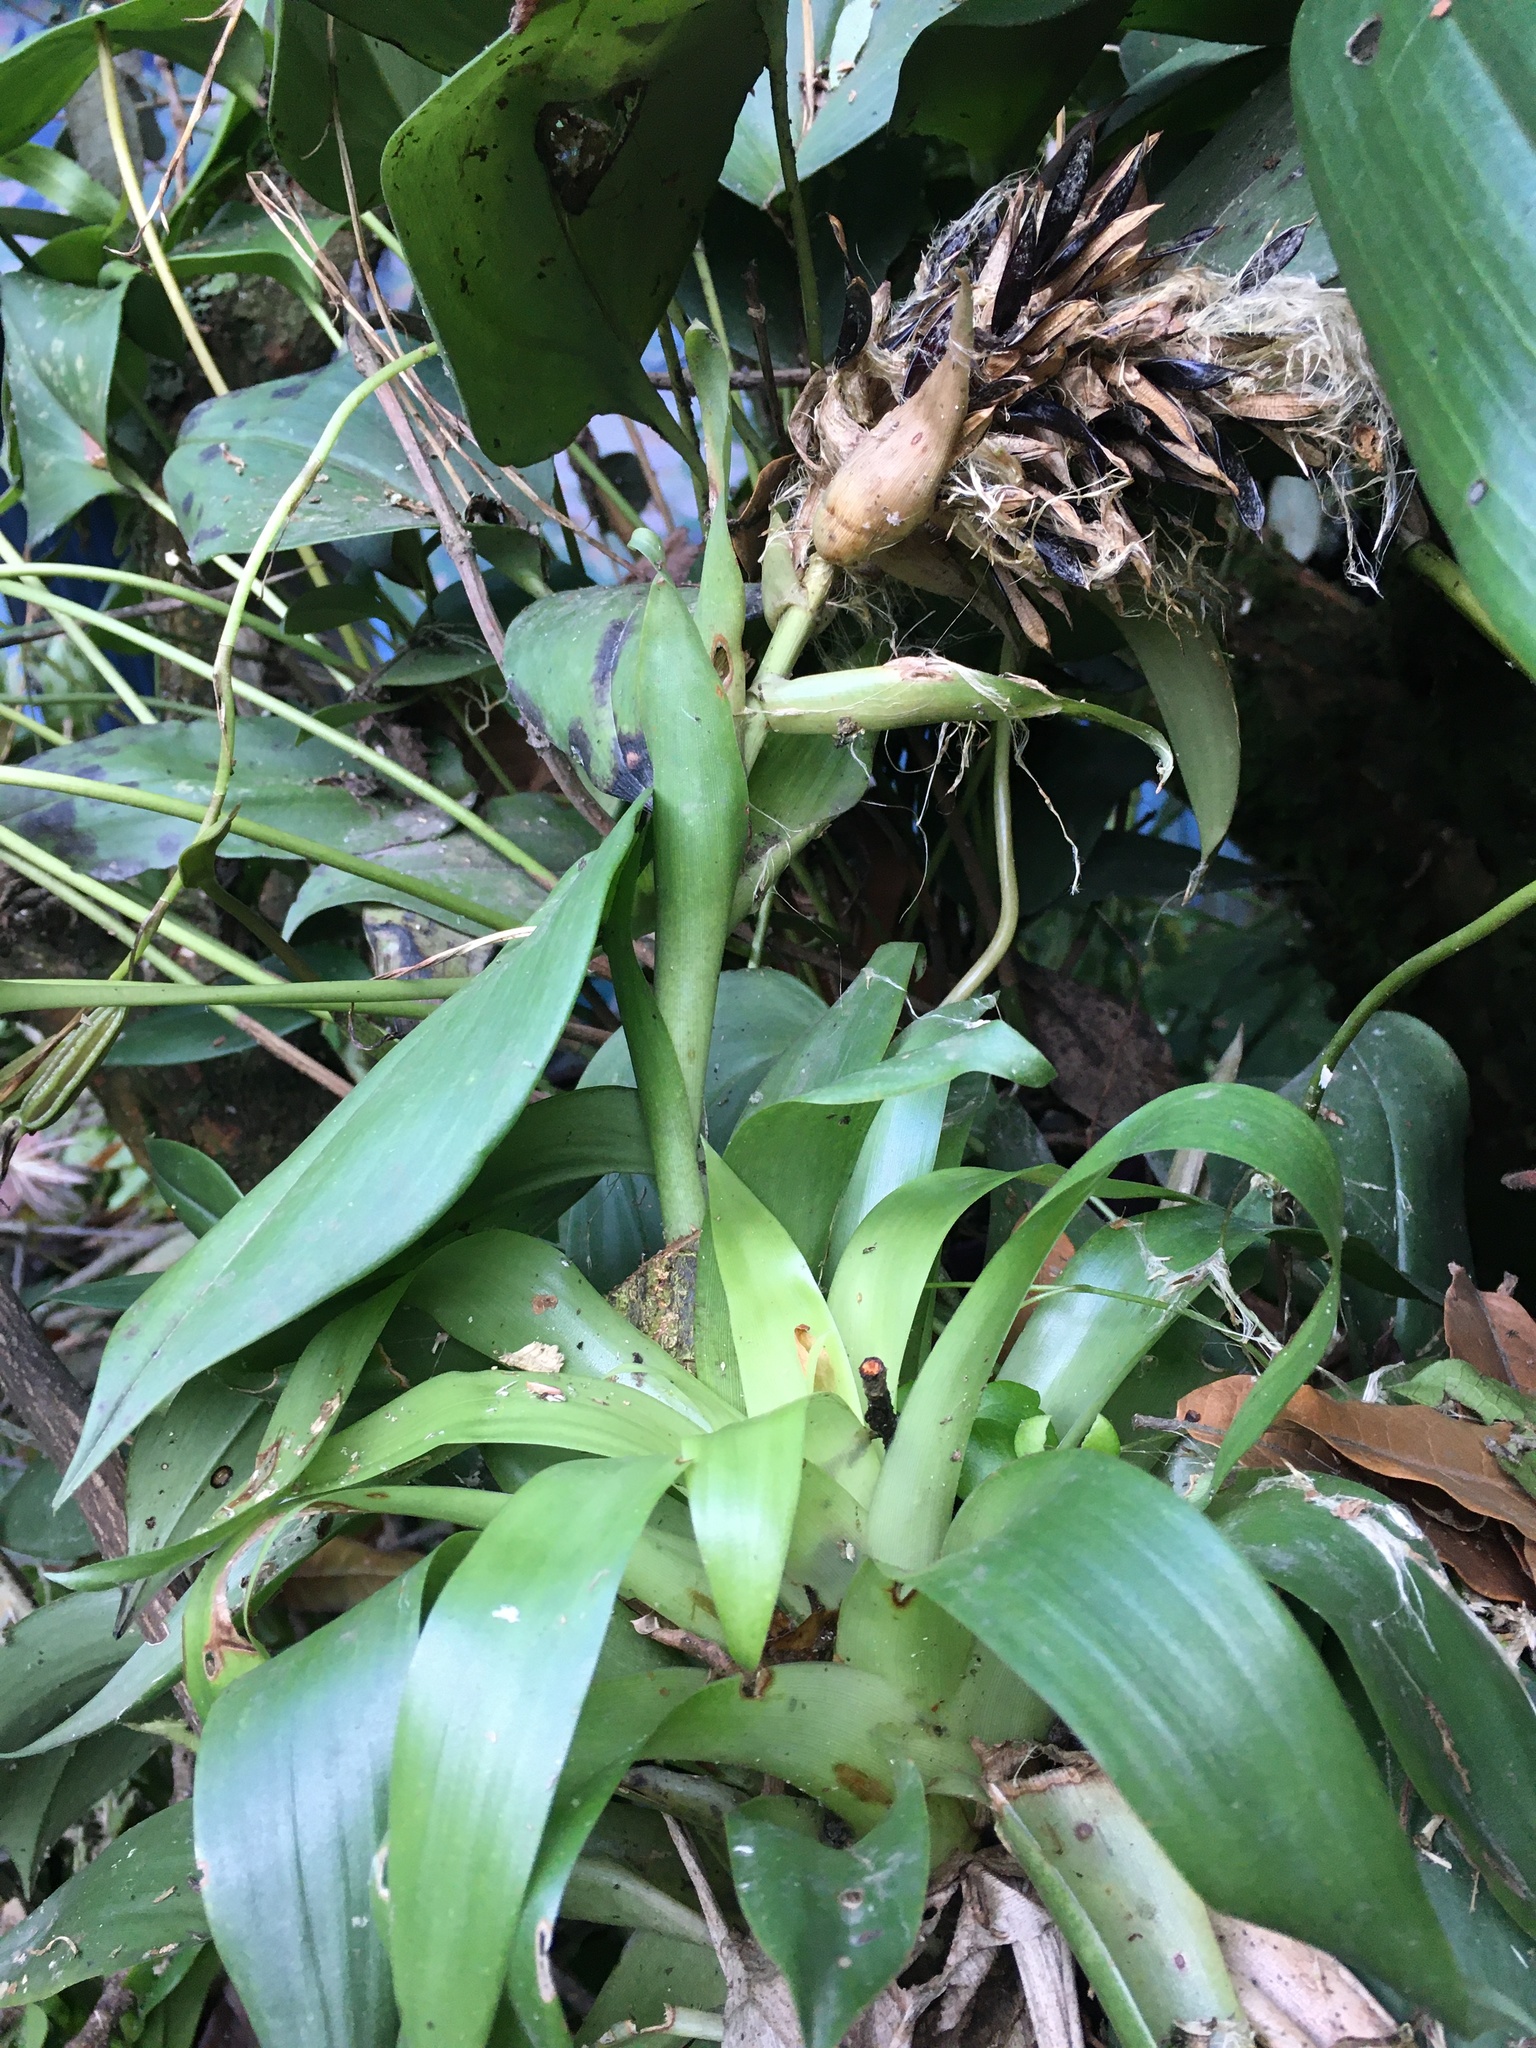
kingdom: Plantae
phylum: Tracheophyta
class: Liliopsida
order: Poales
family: Bromeliaceae
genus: Tillandsia
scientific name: Tillandsia biflora
